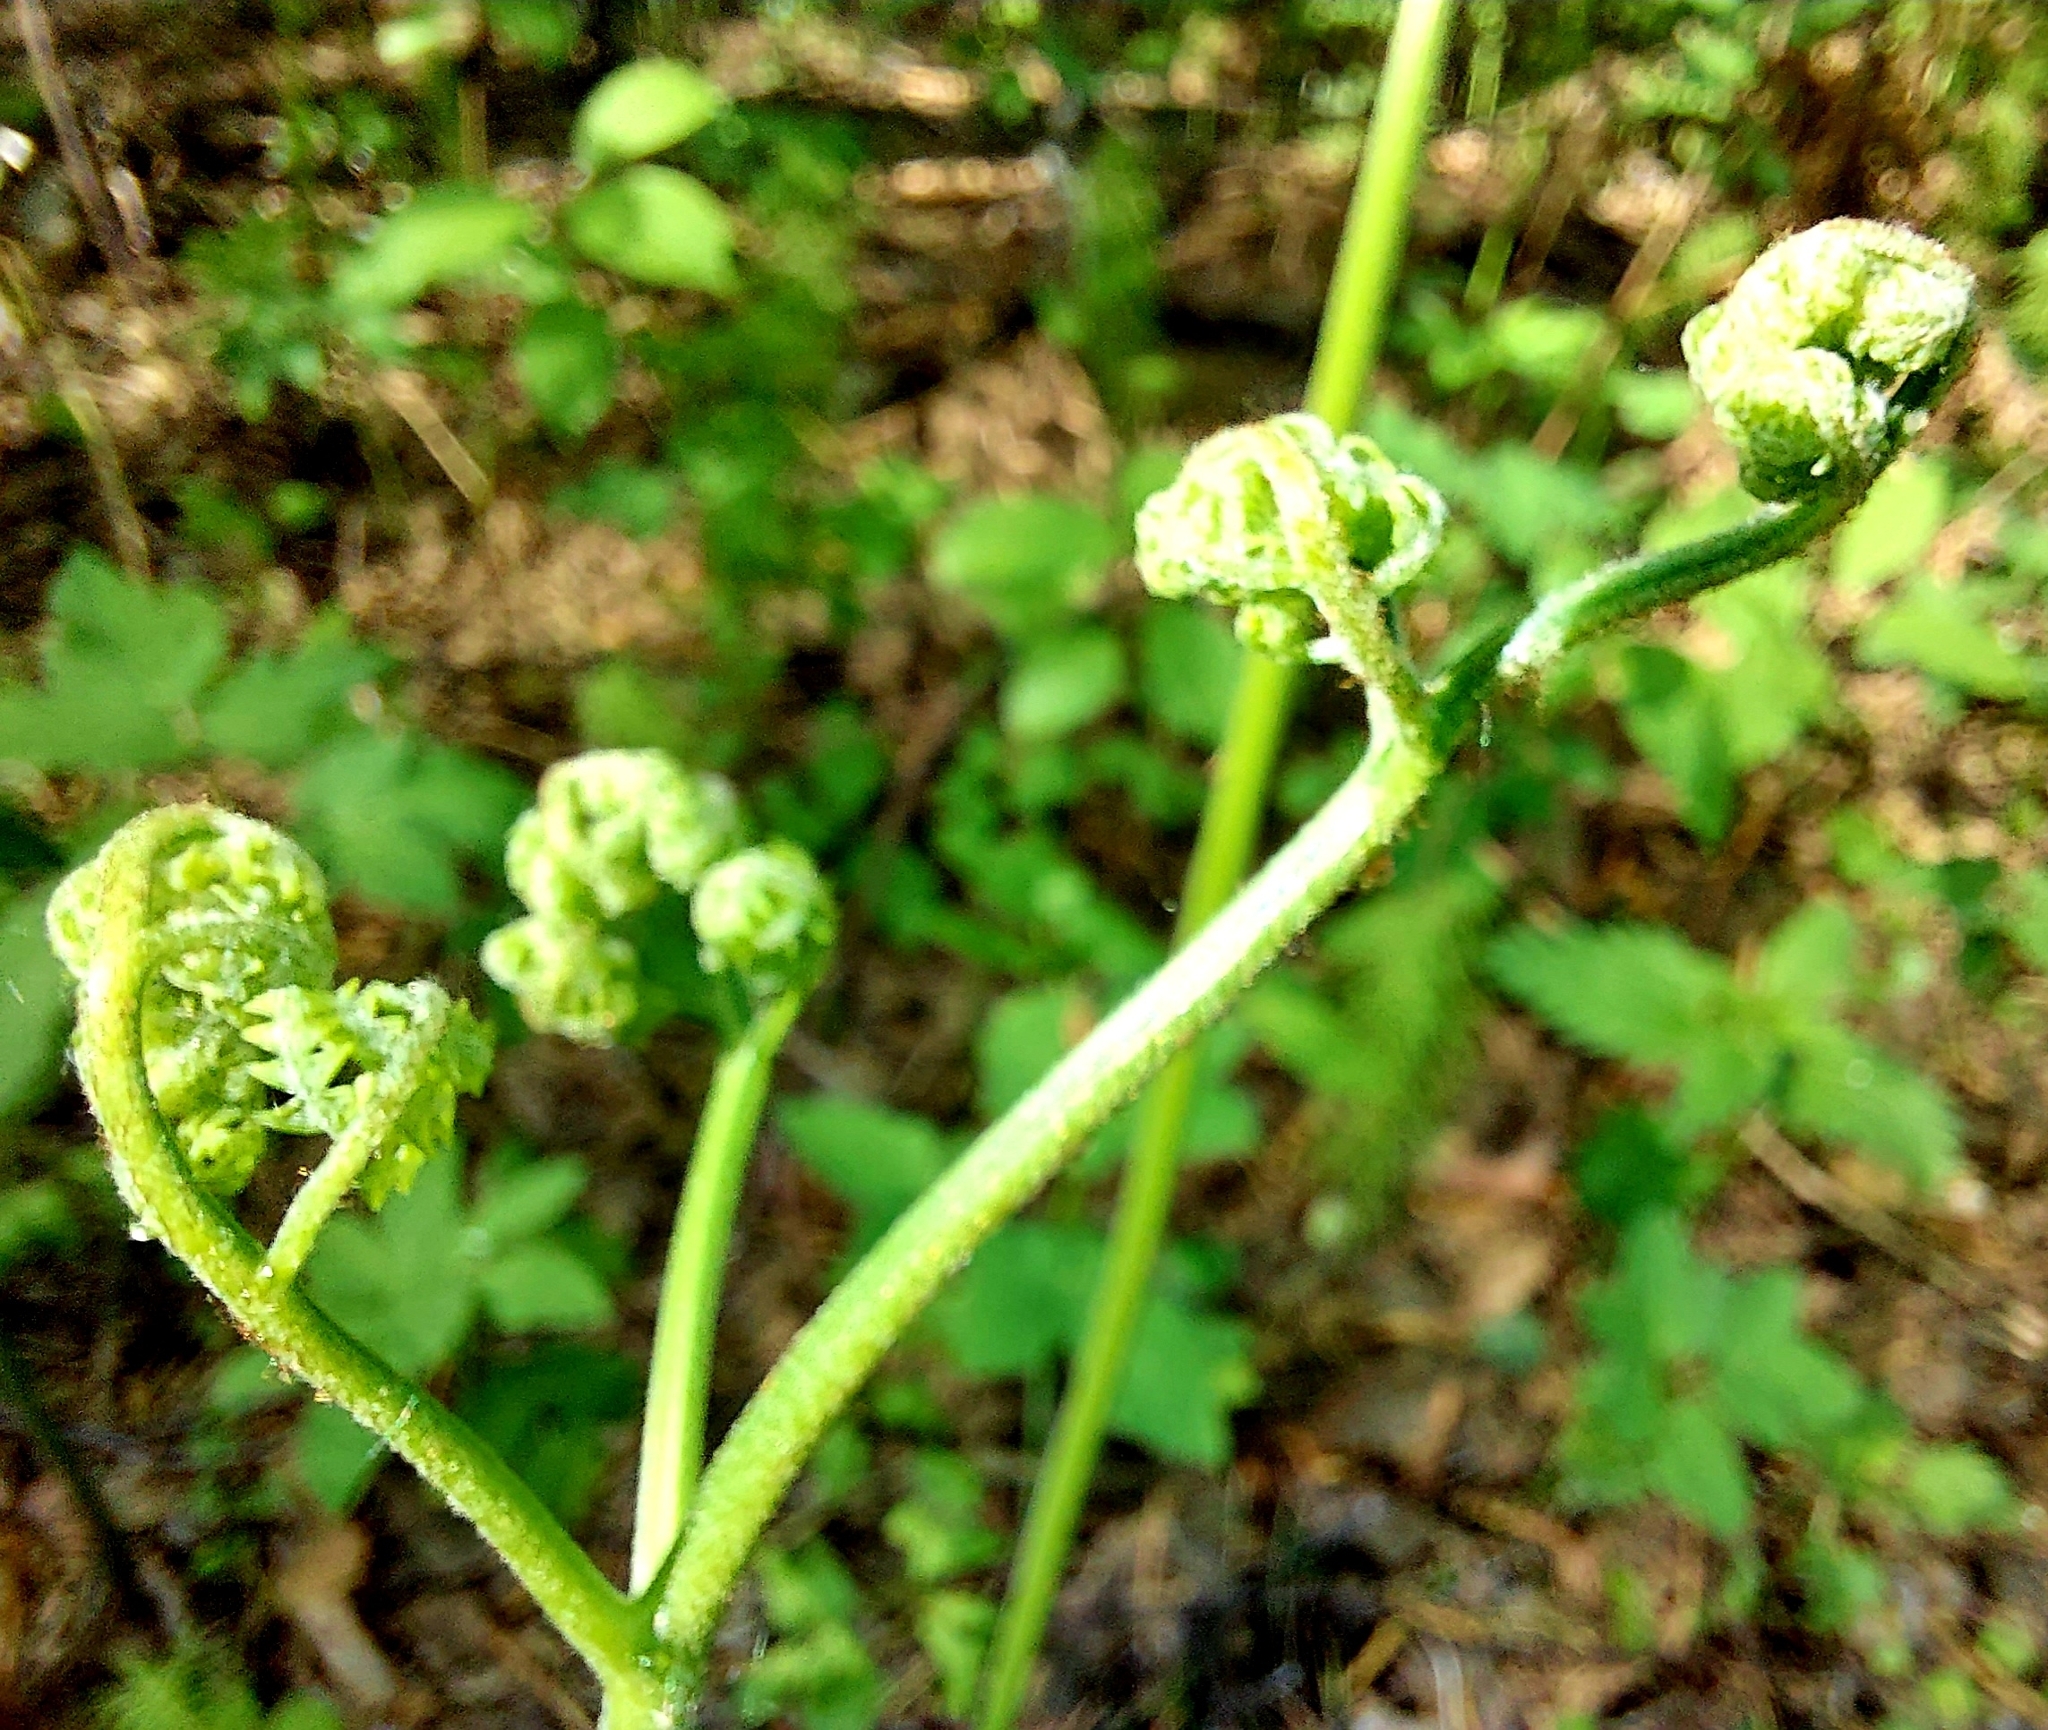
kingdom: Plantae
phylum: Tracheophyta
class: Polypodiopsida
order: Polypodiales
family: Dennstaedtiaceae
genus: Pteridium
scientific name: Pteridium aquilinum
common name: Bracken
